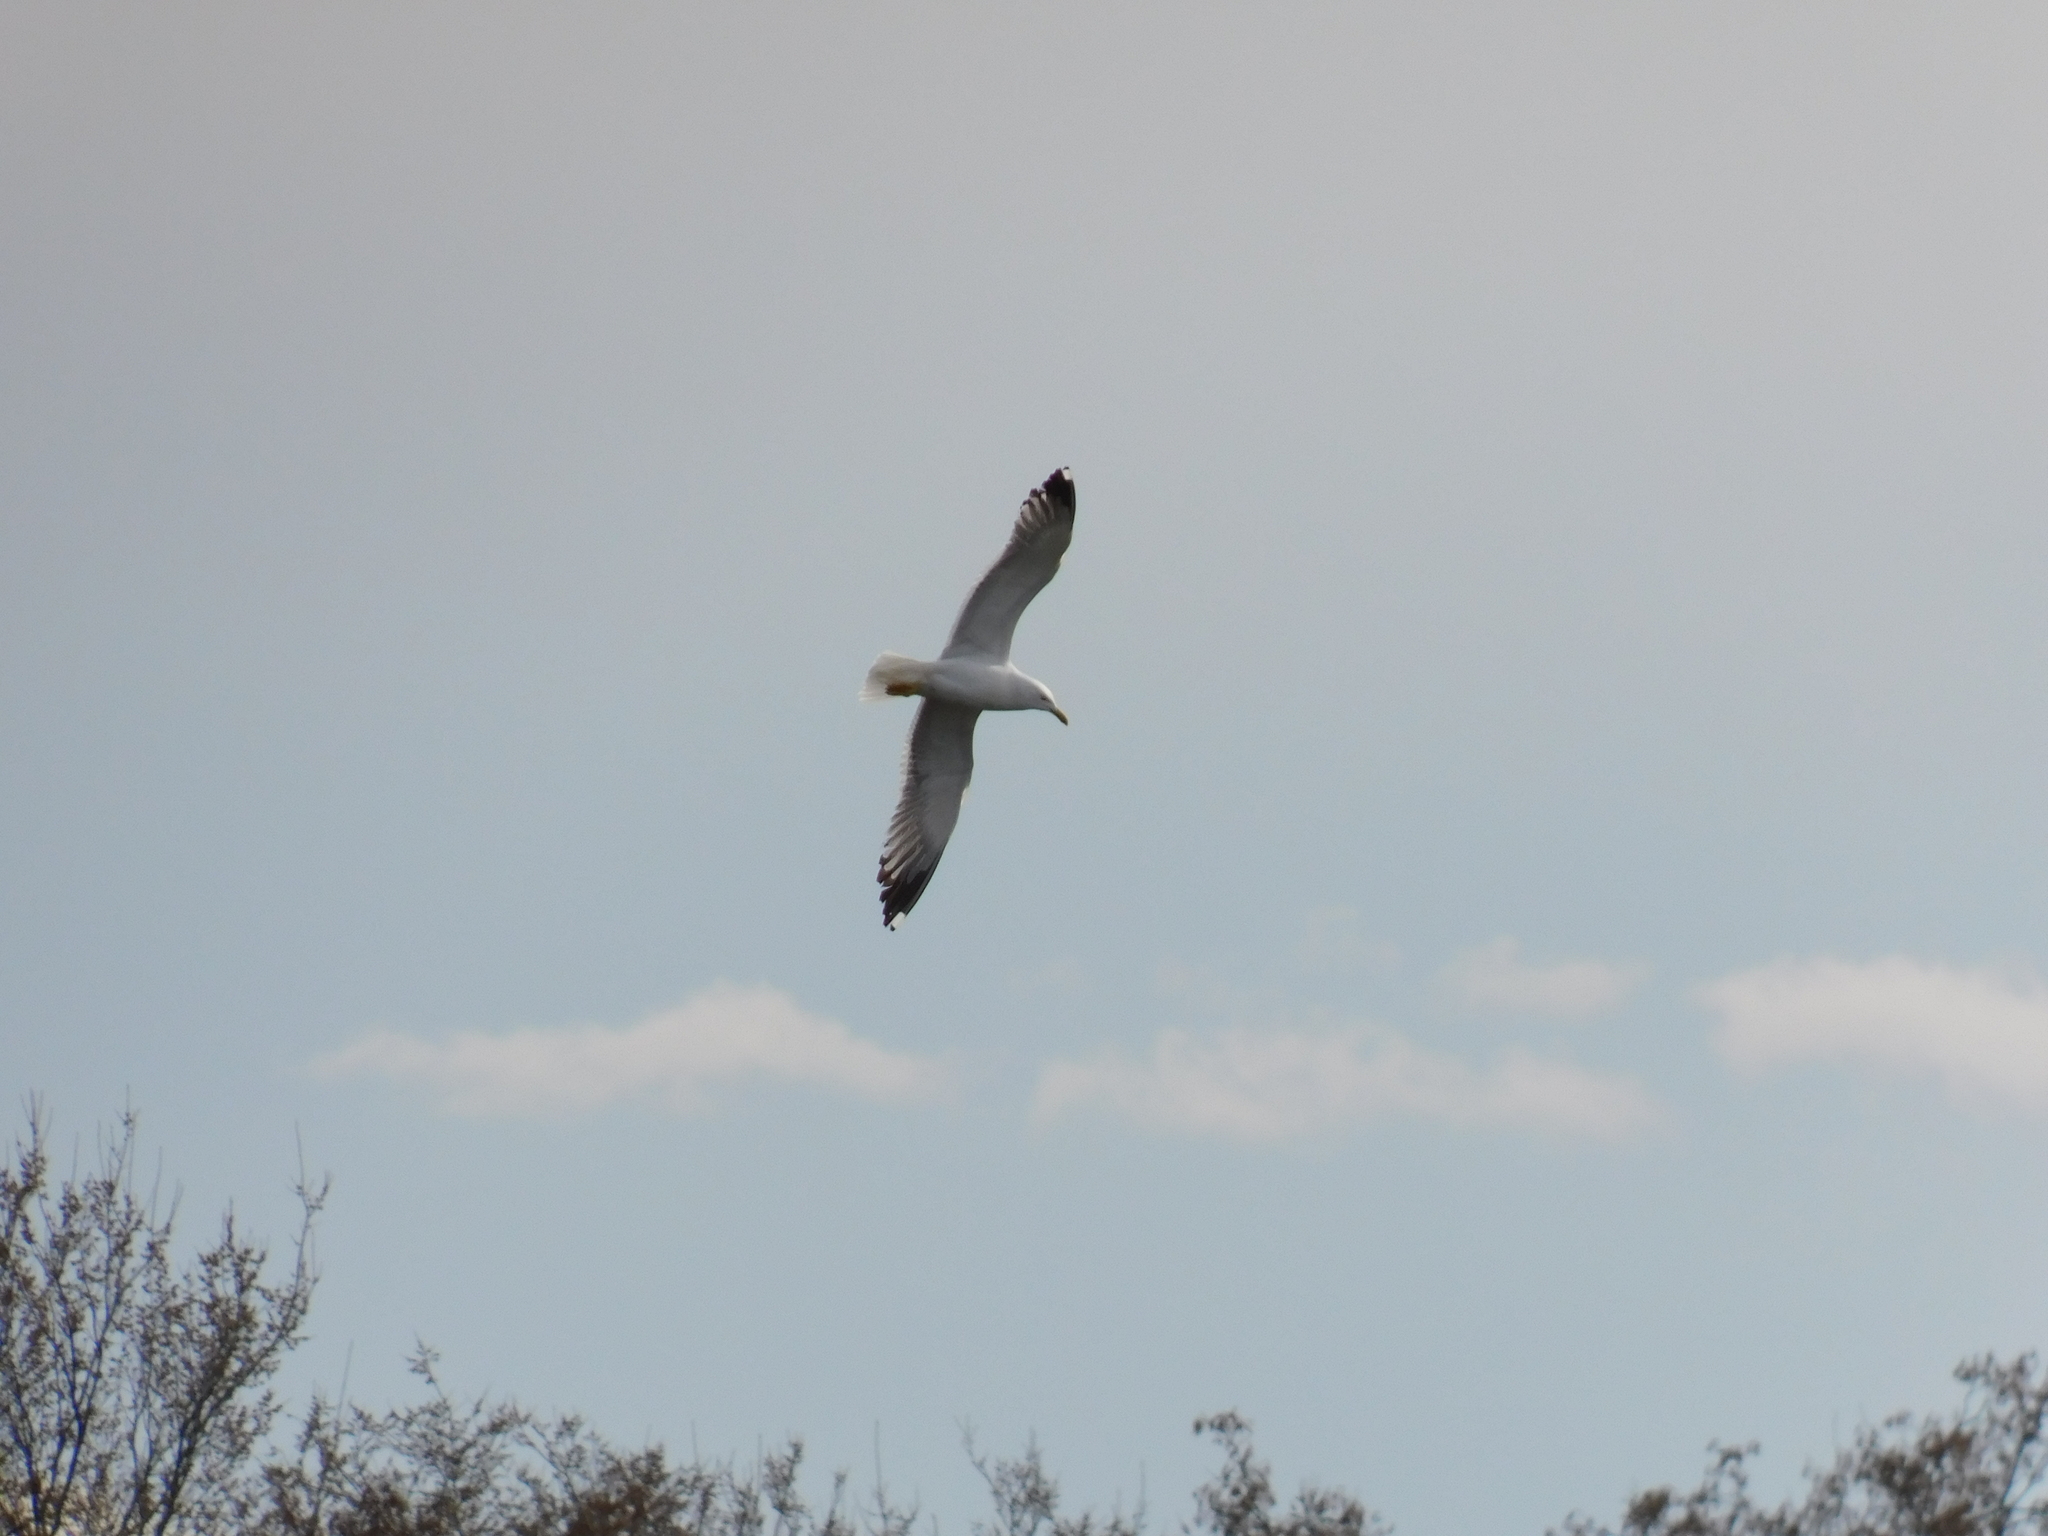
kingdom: Animalia
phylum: Chordata
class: Aves
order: Charadriiformes
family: Laridae
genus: Larus
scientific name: Larus fuscus
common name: Lesser black-backed gull
